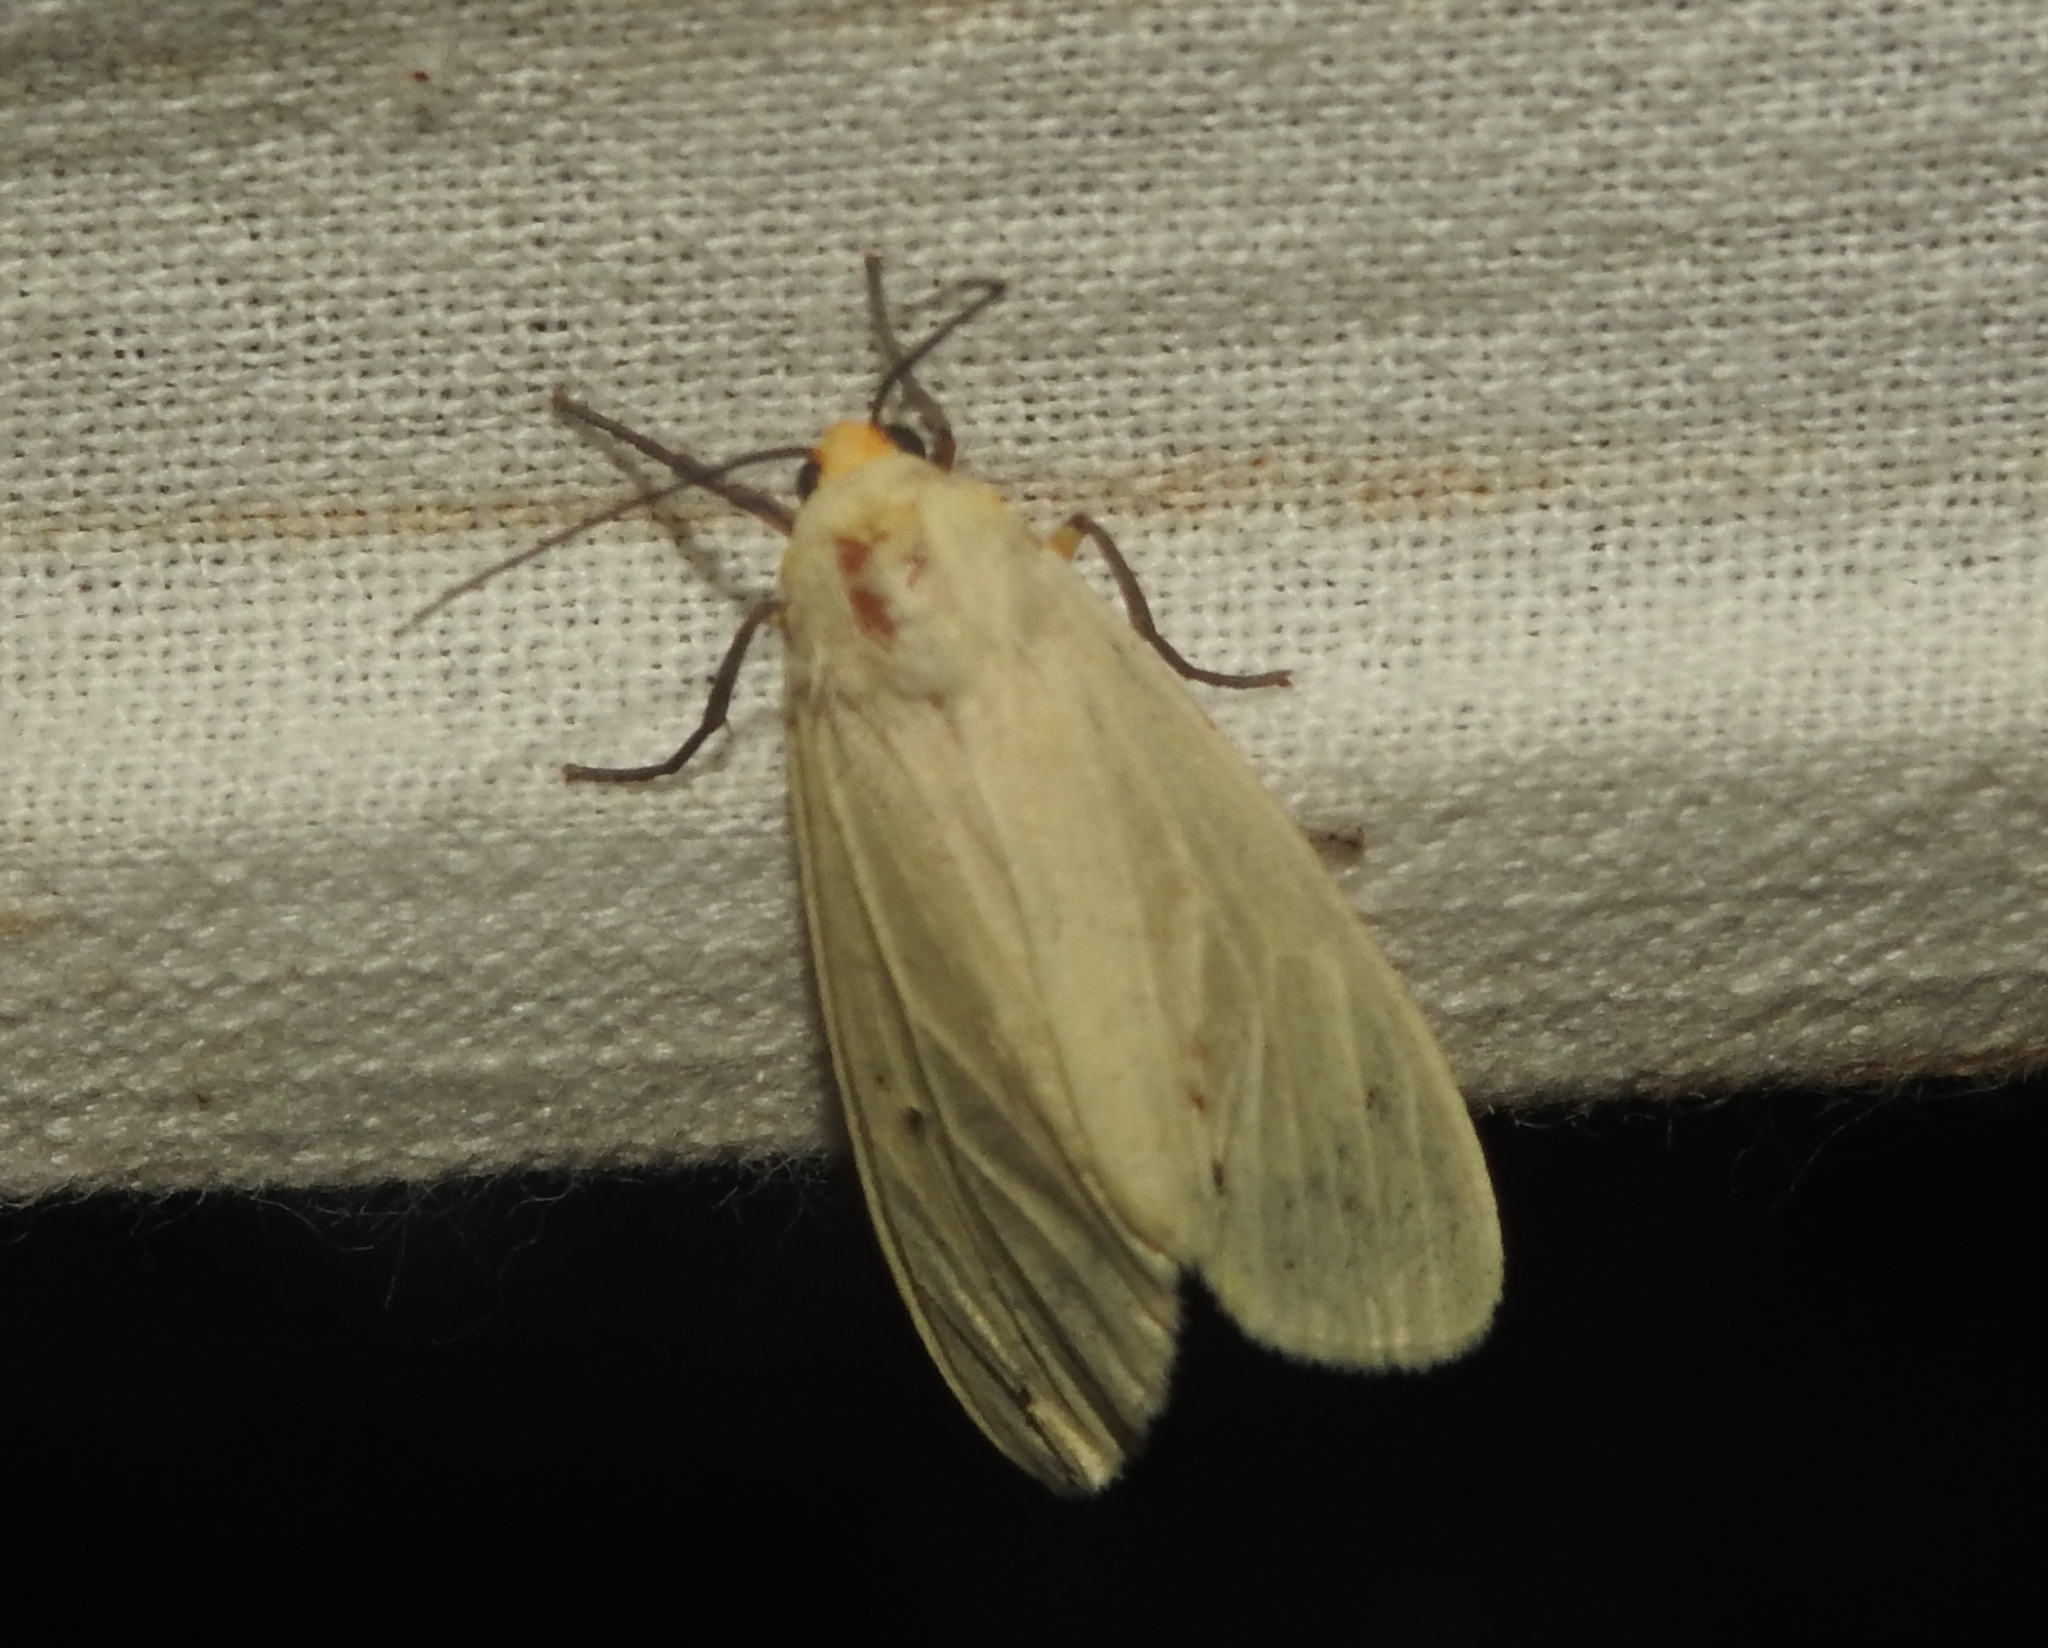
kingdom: Animalia
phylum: Arthropoda
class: Insecta
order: Lepidoptera
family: Erebidae
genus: Pareuchaetes
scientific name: Pareuchaetes pseudoinsulata
